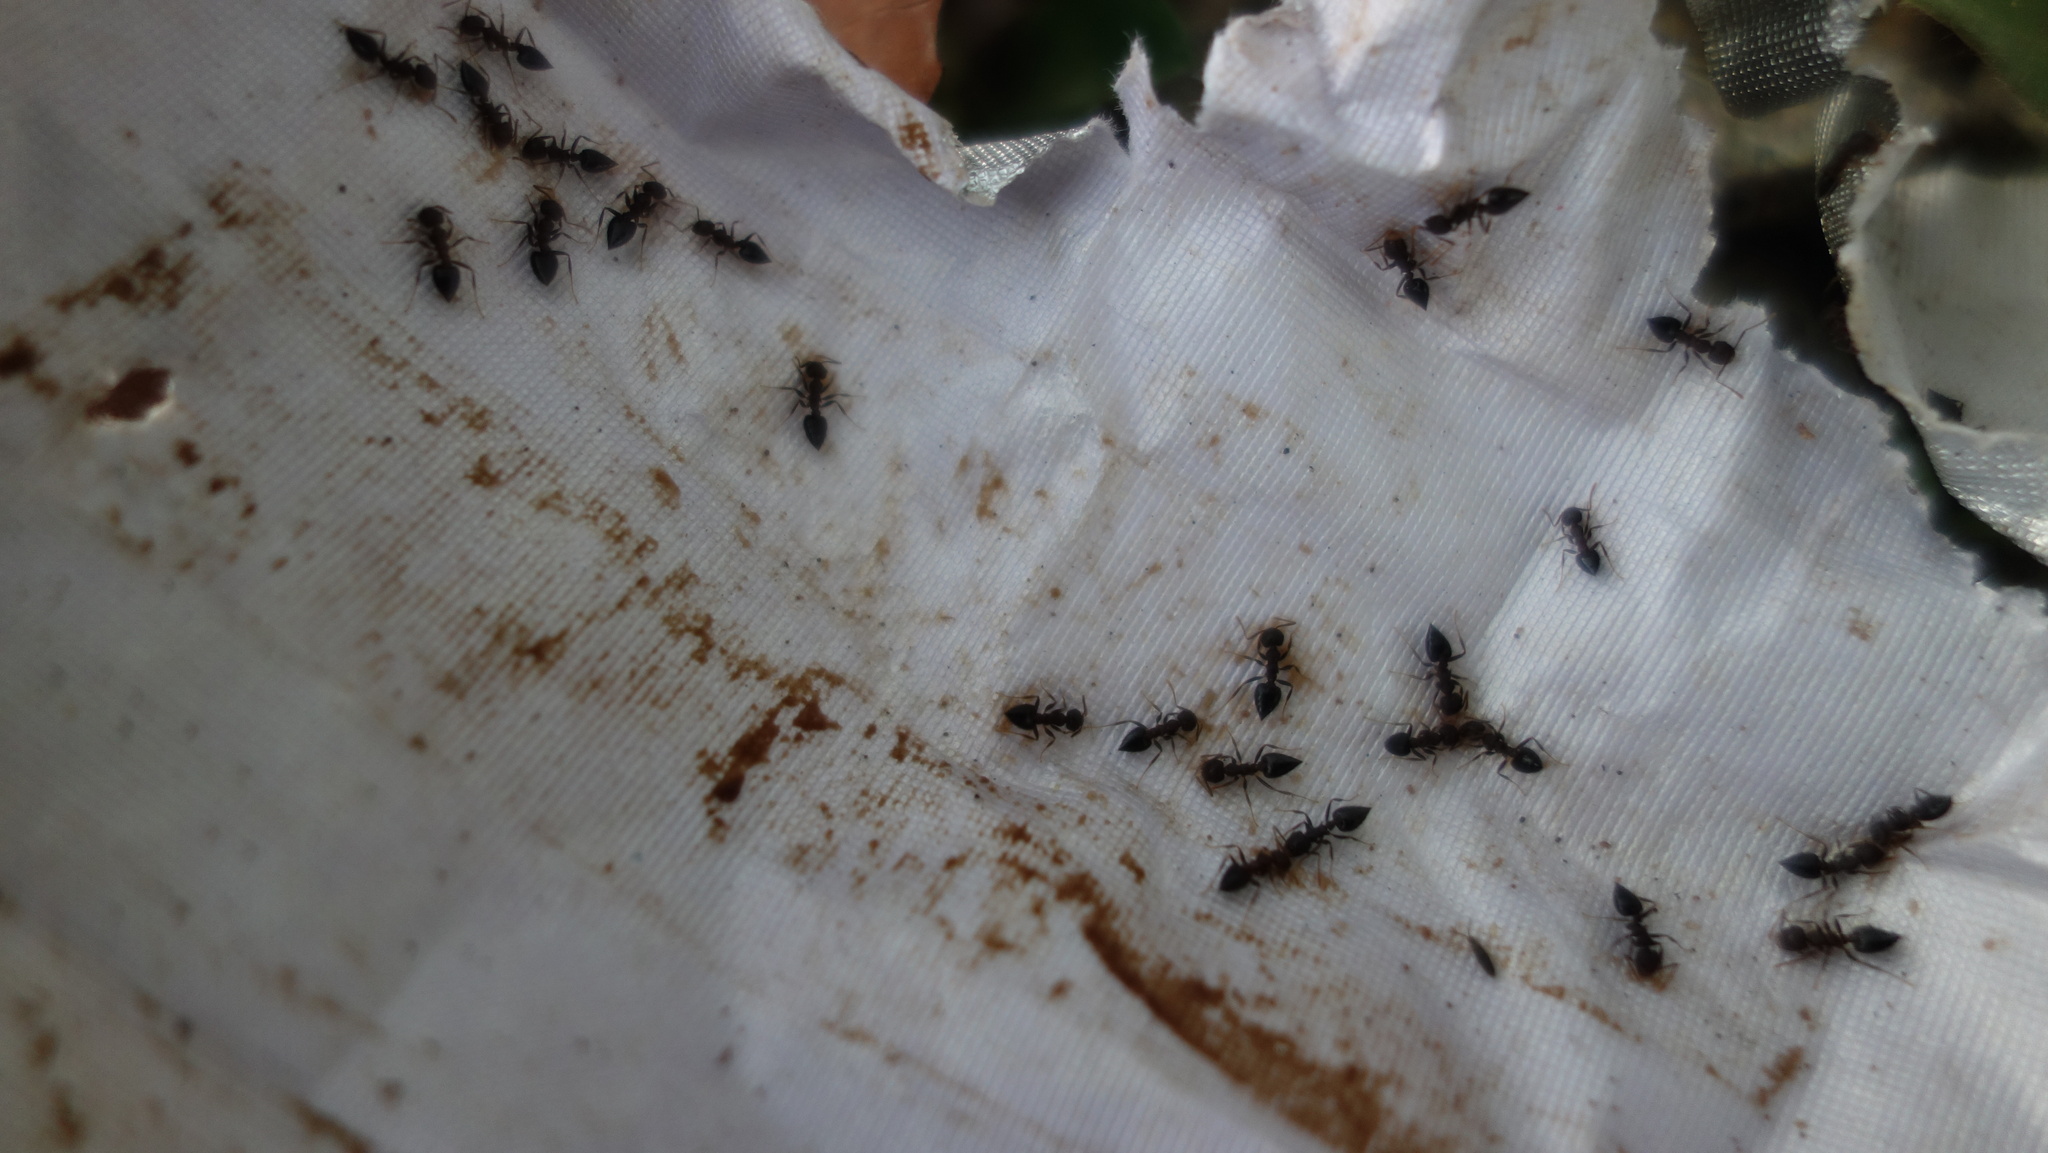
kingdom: Animalia
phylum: Arthropoda
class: Insecta
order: Hymenoptera
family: Formicidae
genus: Crematogaster
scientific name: Crematogaster rothneyi
